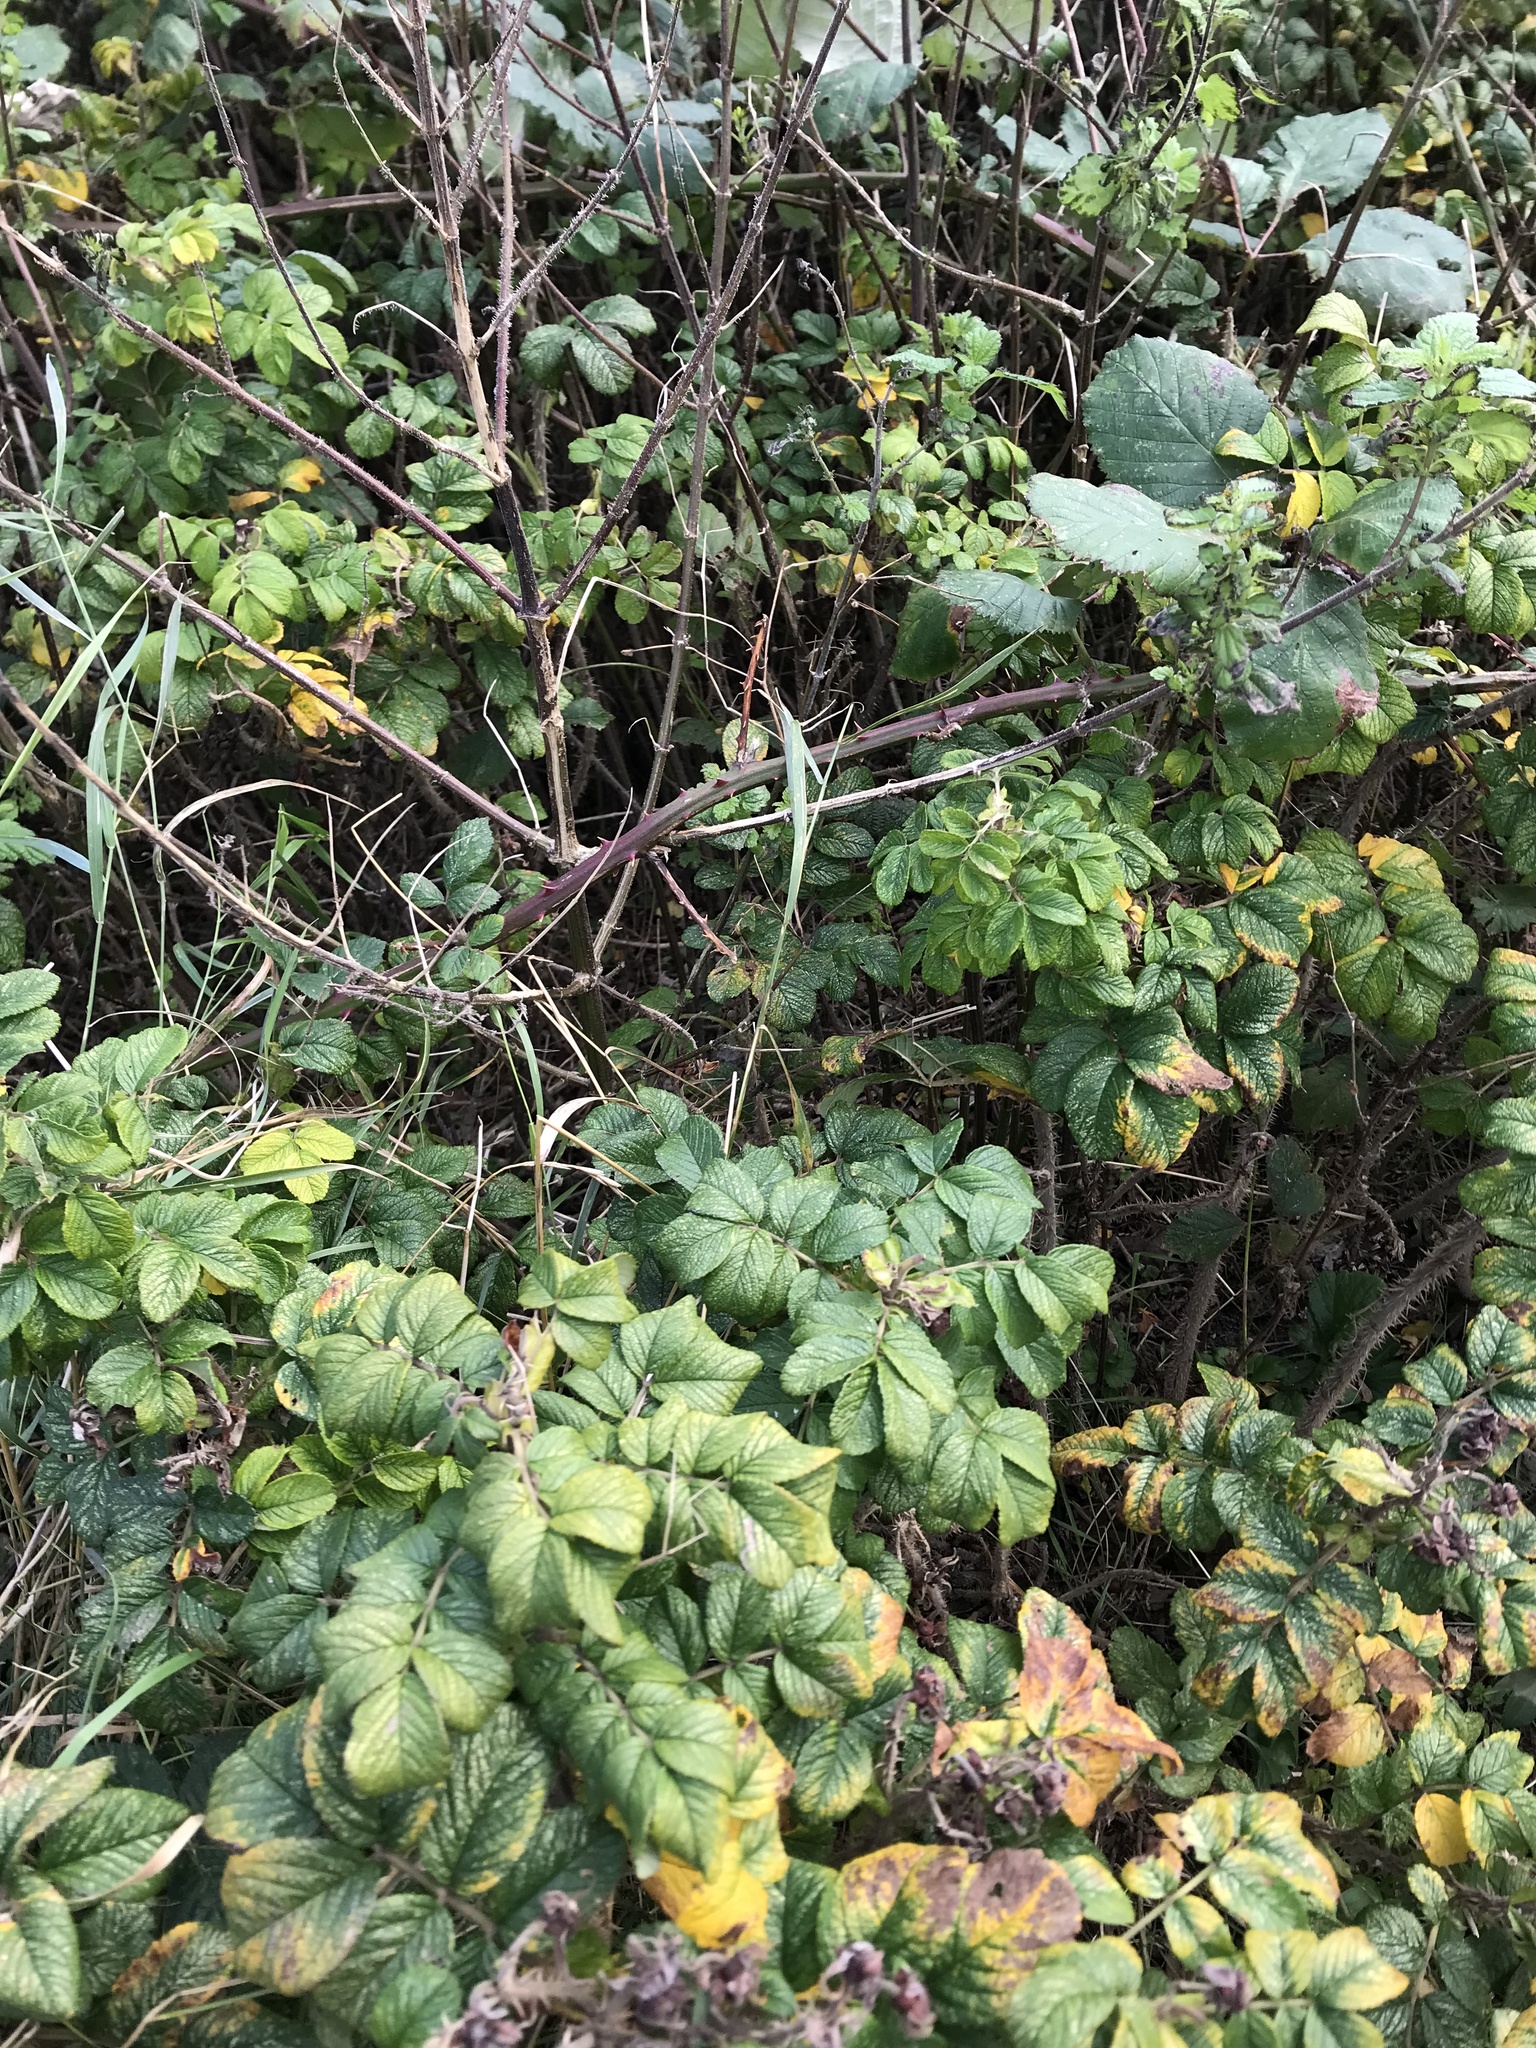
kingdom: Plantae
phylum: Tracheophyta
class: Magnoliopsida
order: Rosales
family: Rosaceae
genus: Rosa
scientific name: Rosa rugosa
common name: Japanese rose
